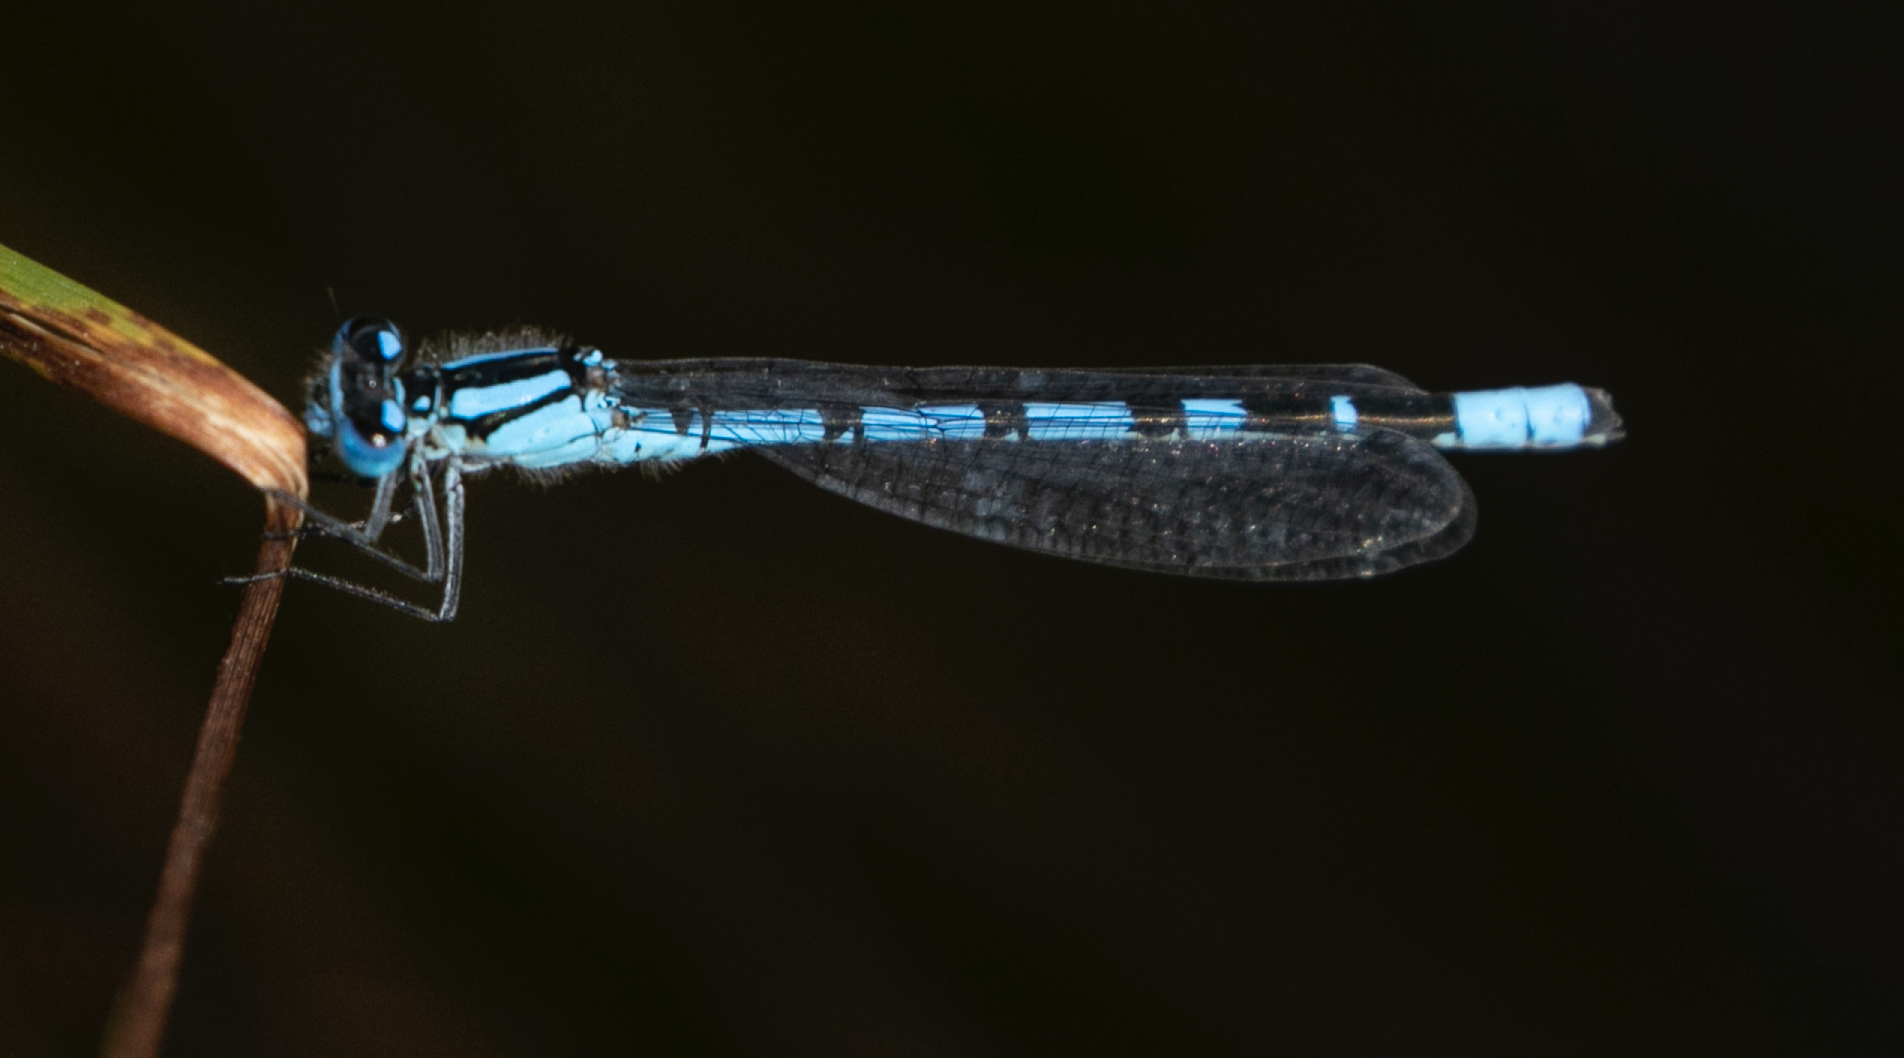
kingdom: Animalia
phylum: Arthropoda
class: Insecta
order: Odonata
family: Coenagrionidae
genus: Enallagma
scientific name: Enallagma cyathigerum
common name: Common blue damselfly
